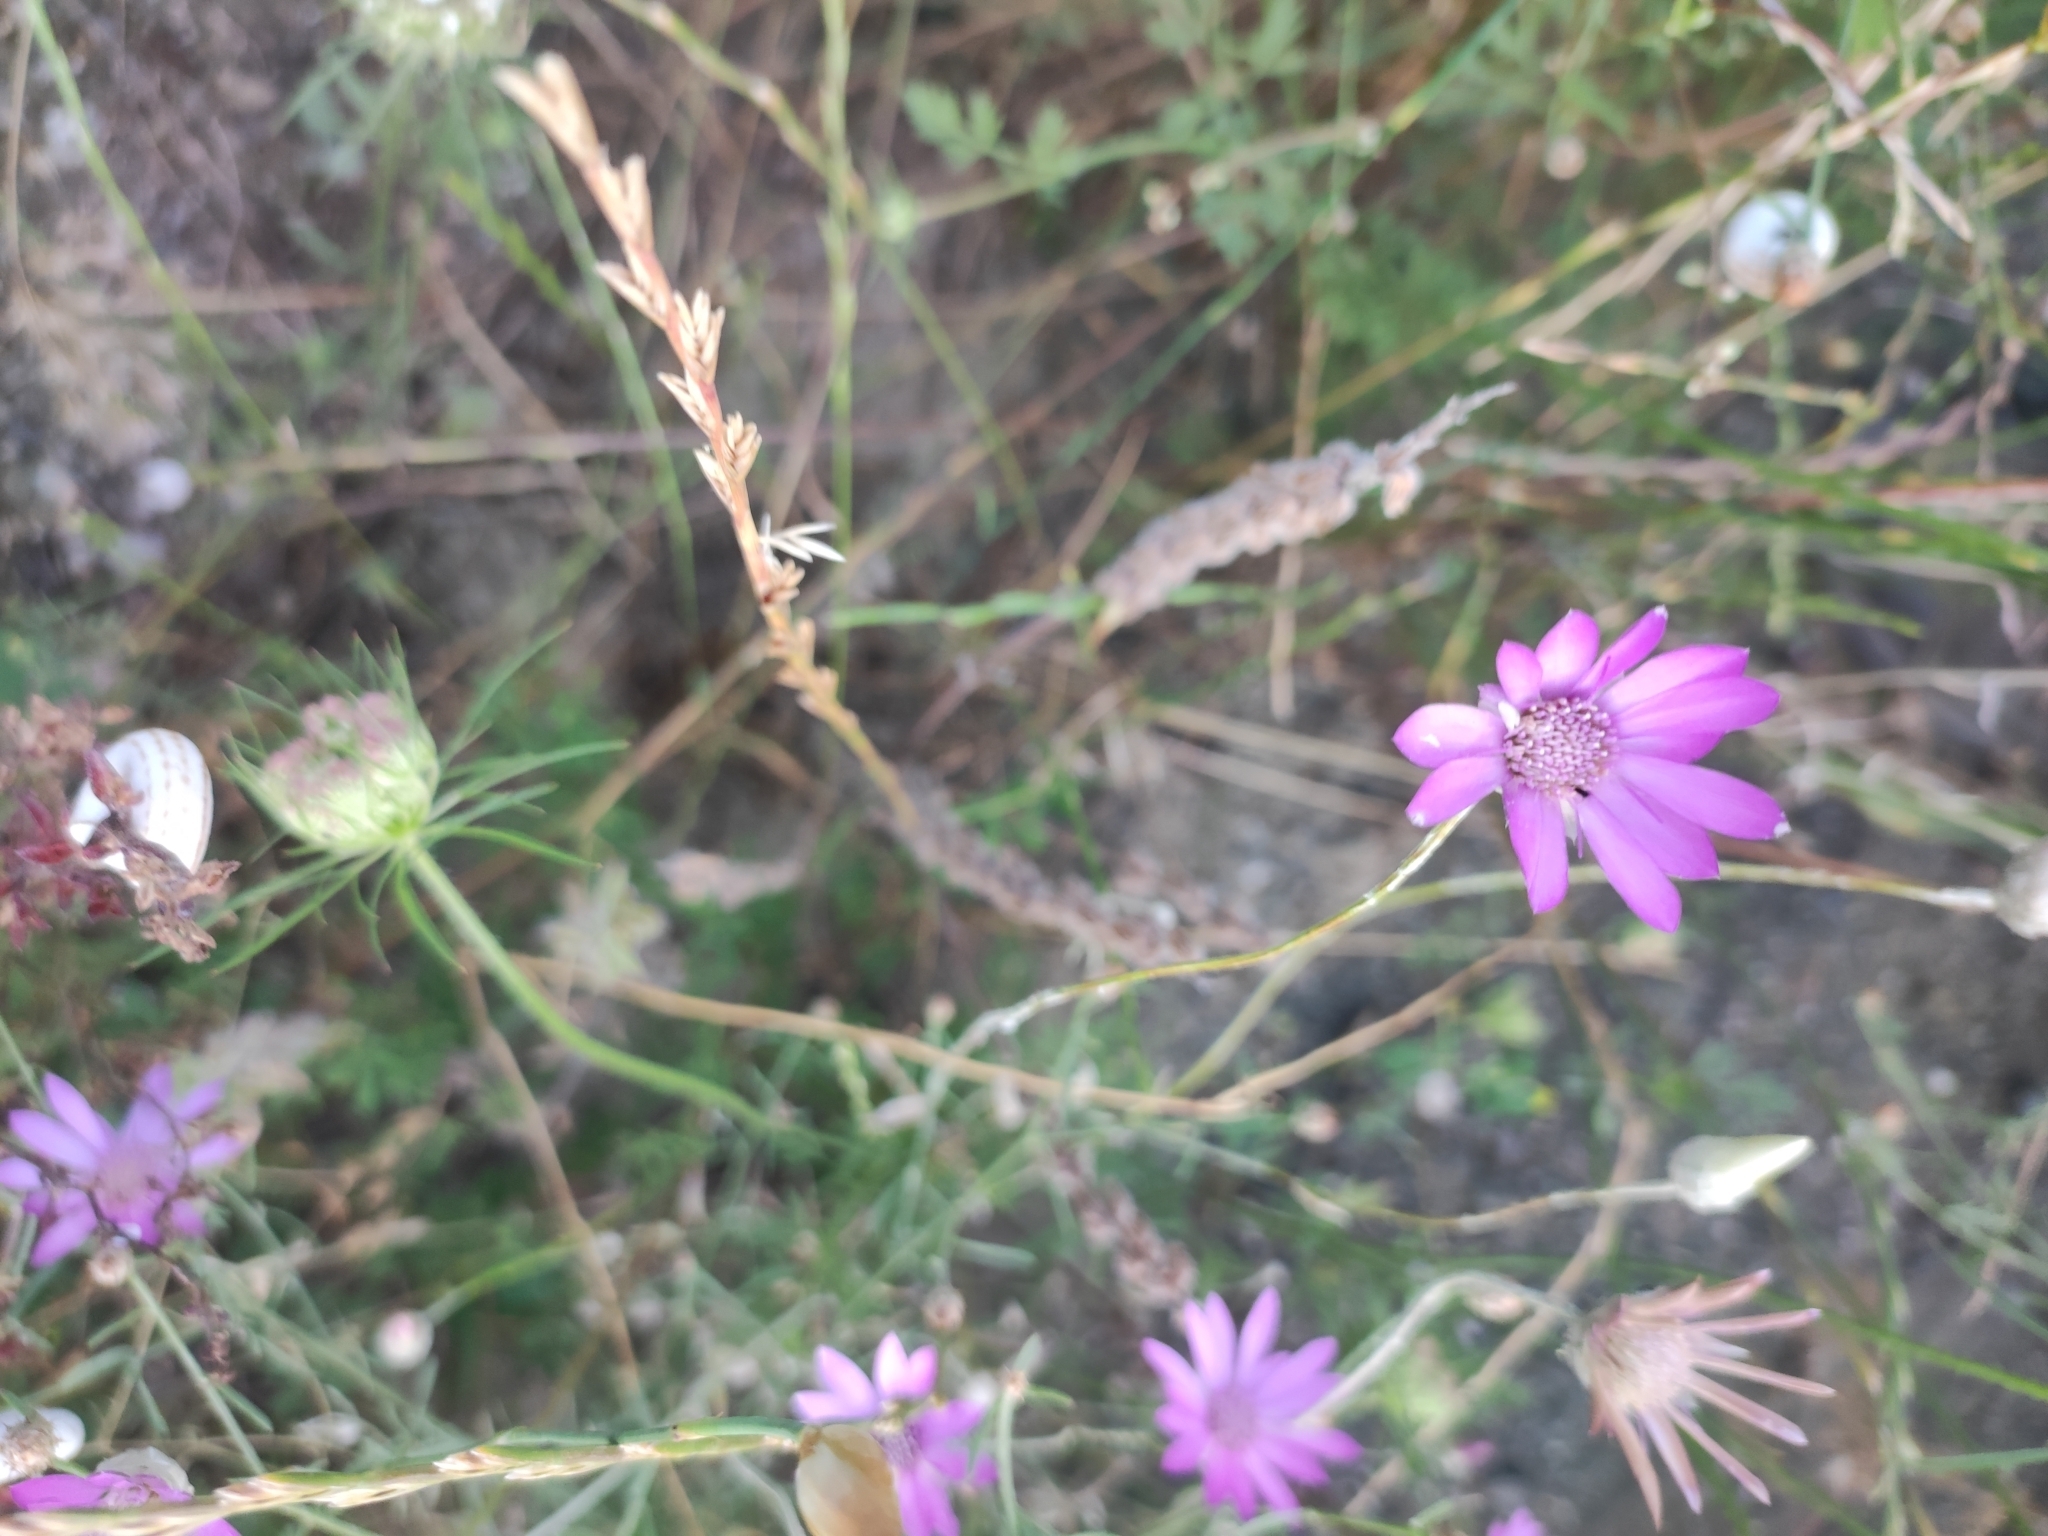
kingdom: Plantae
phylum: Tracheophyta
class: Magnoliopsida
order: Asterales
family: Asteraceae
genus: Xeranthemum
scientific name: Xeranthemum annuum
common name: Immortelle
